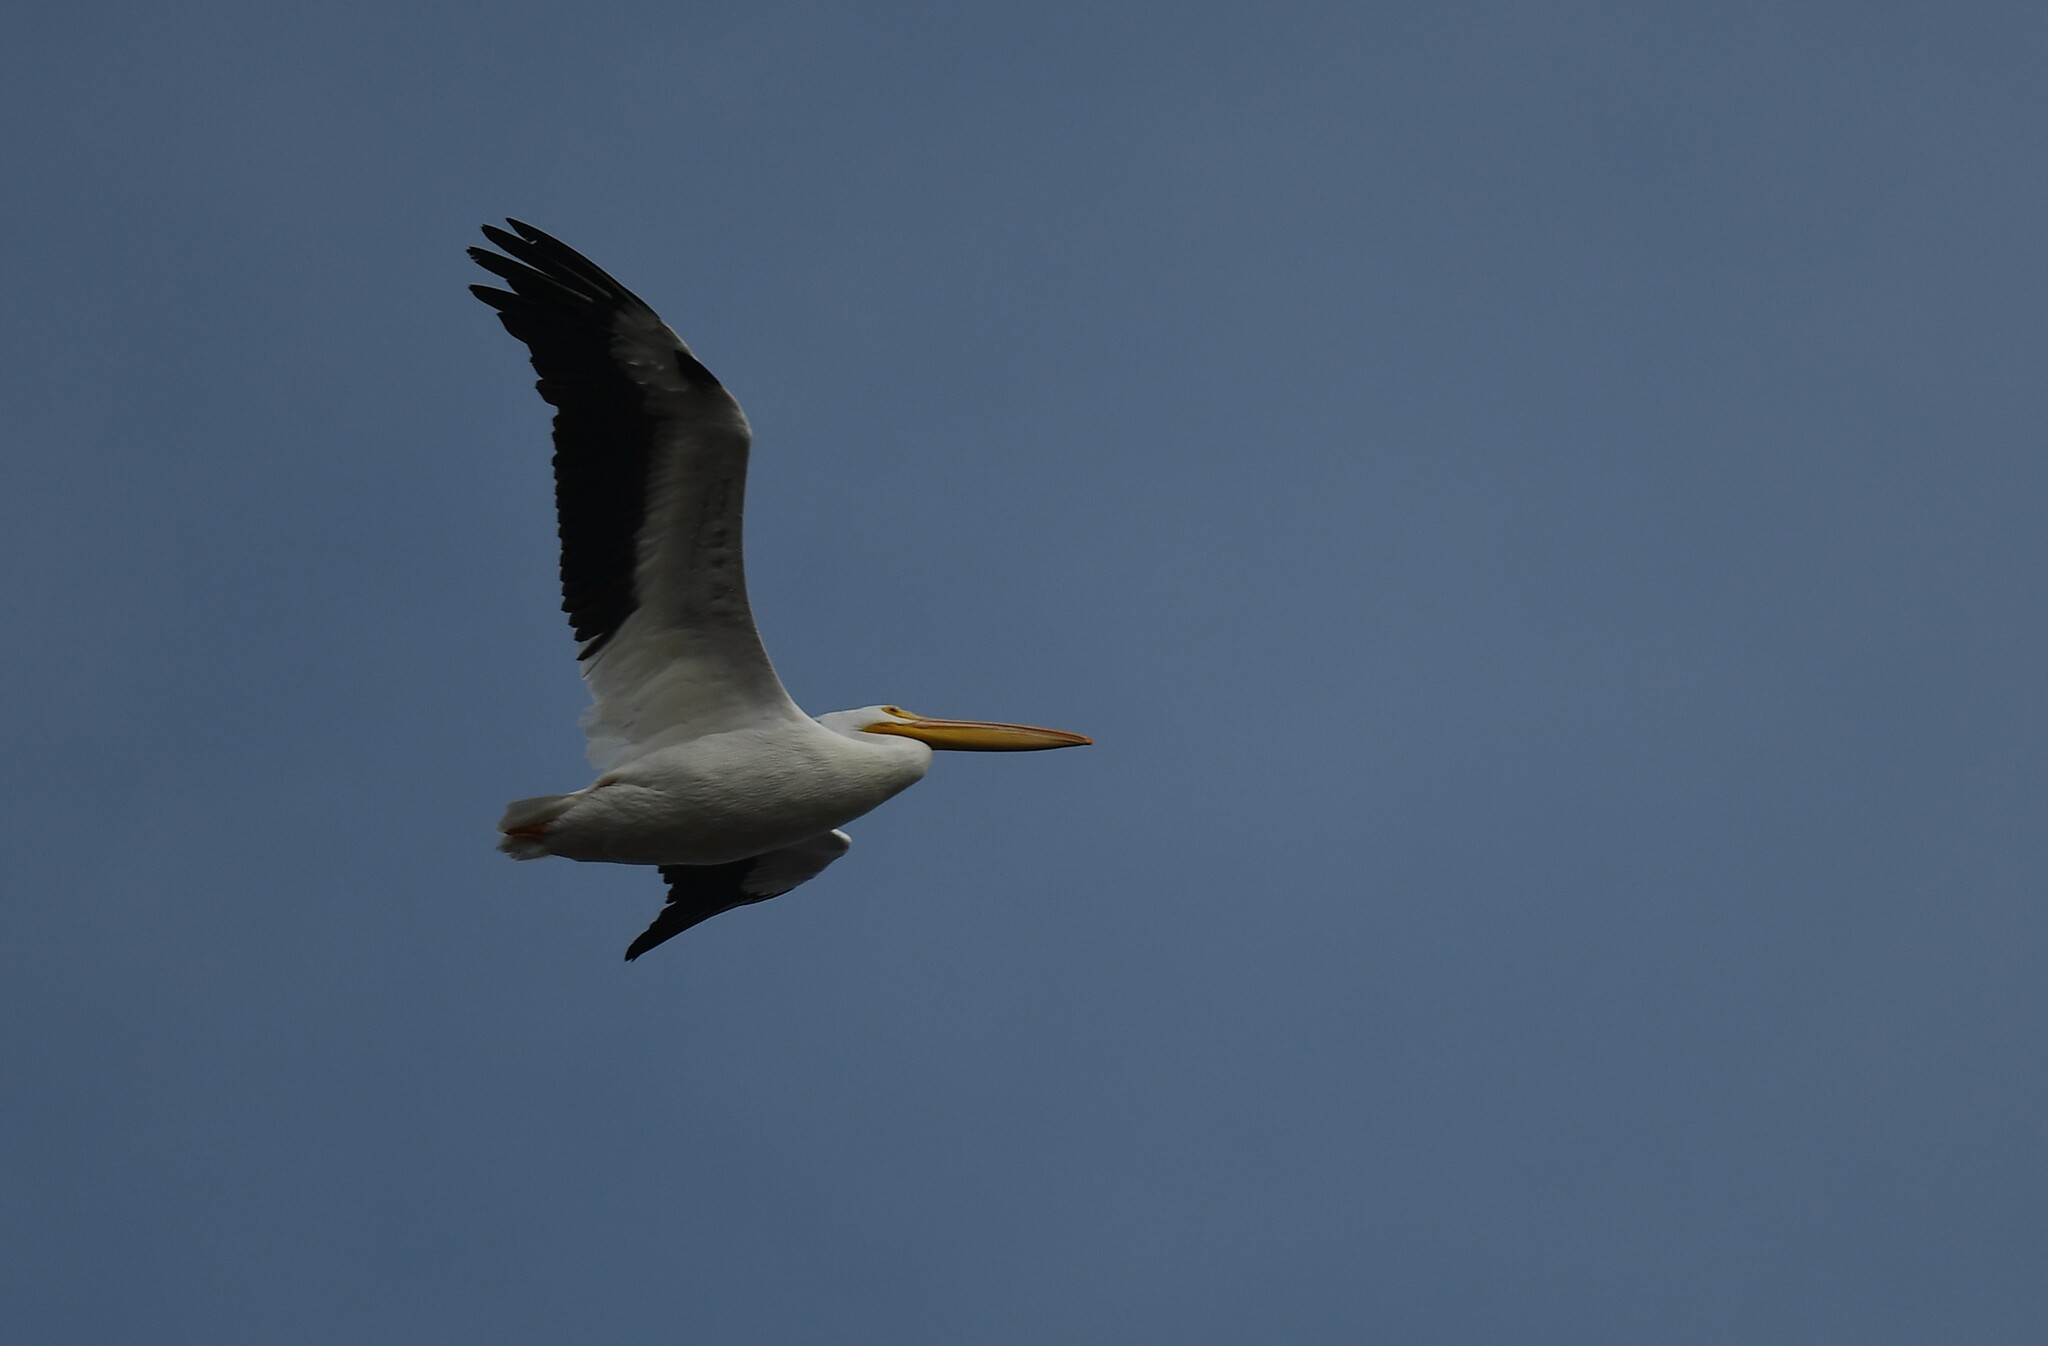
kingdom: Animalia
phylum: Chordata
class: Aves
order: Pelecaniformes
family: Pelecanidae
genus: Pelecanus
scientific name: Pelecanus erythrorhynchos
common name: American white pelican
